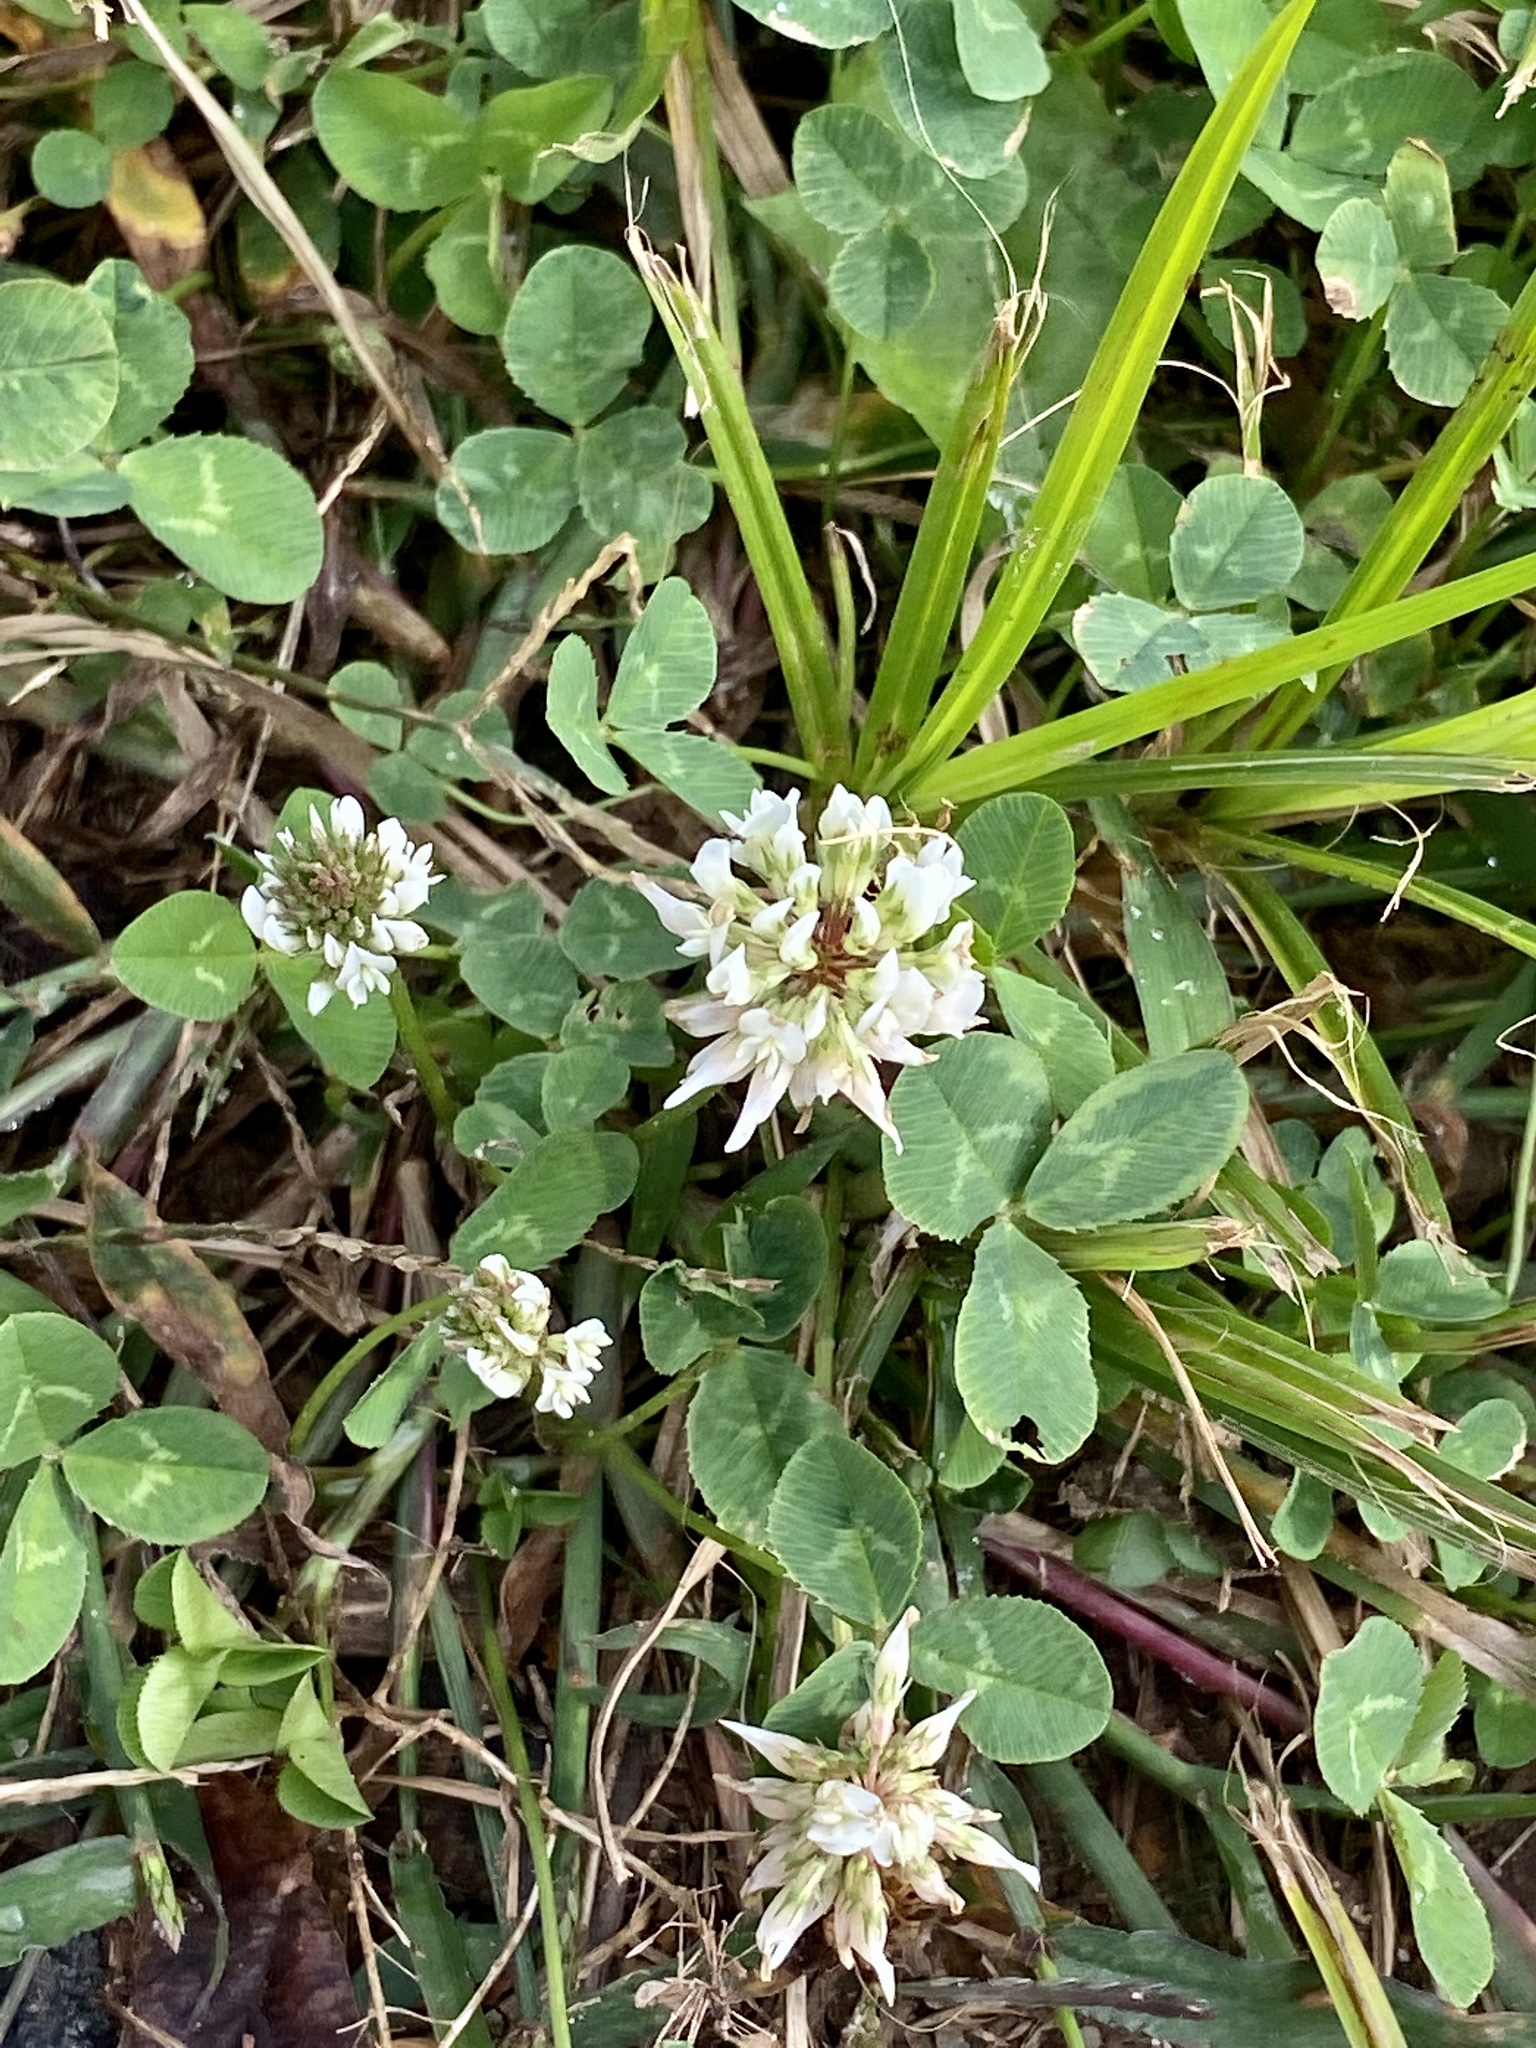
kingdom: Plantae
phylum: Tracheophyta
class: Magnoliopsida
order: Fabales
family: Fabaceae
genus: Trifolium
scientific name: Trifolium repens
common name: White clover
